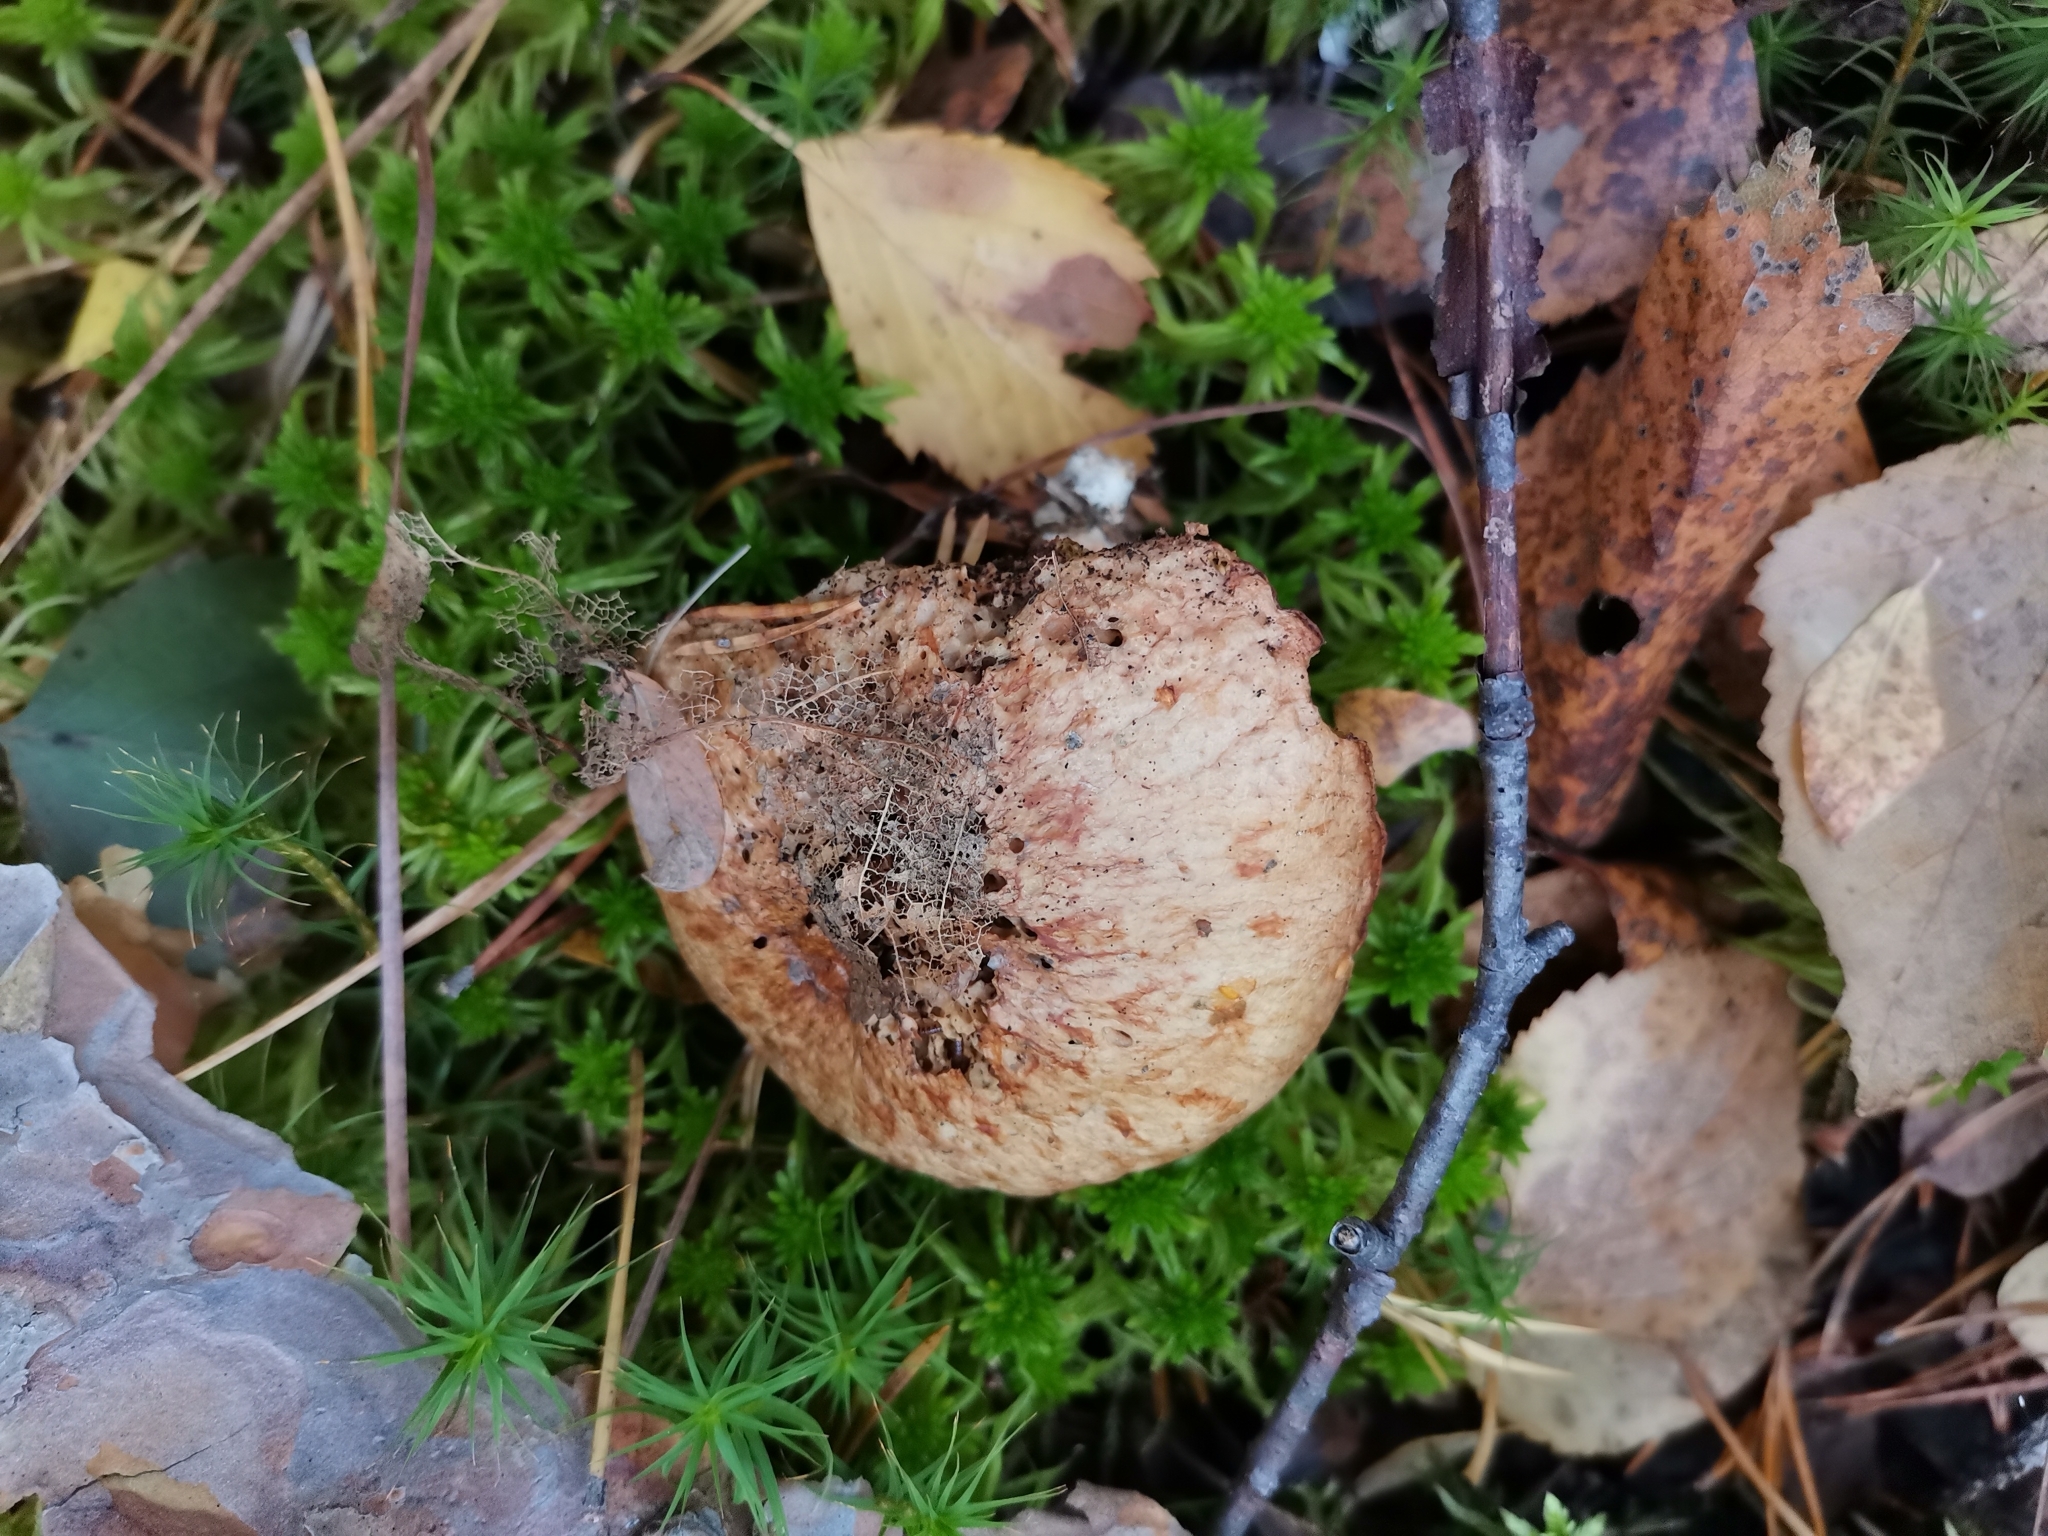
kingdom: Fungi
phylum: Basidiomycota
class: Agaricomycetes
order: Boletales
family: Suillaceae
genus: Suillus
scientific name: Suillus bovinus
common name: Bovine bolete
